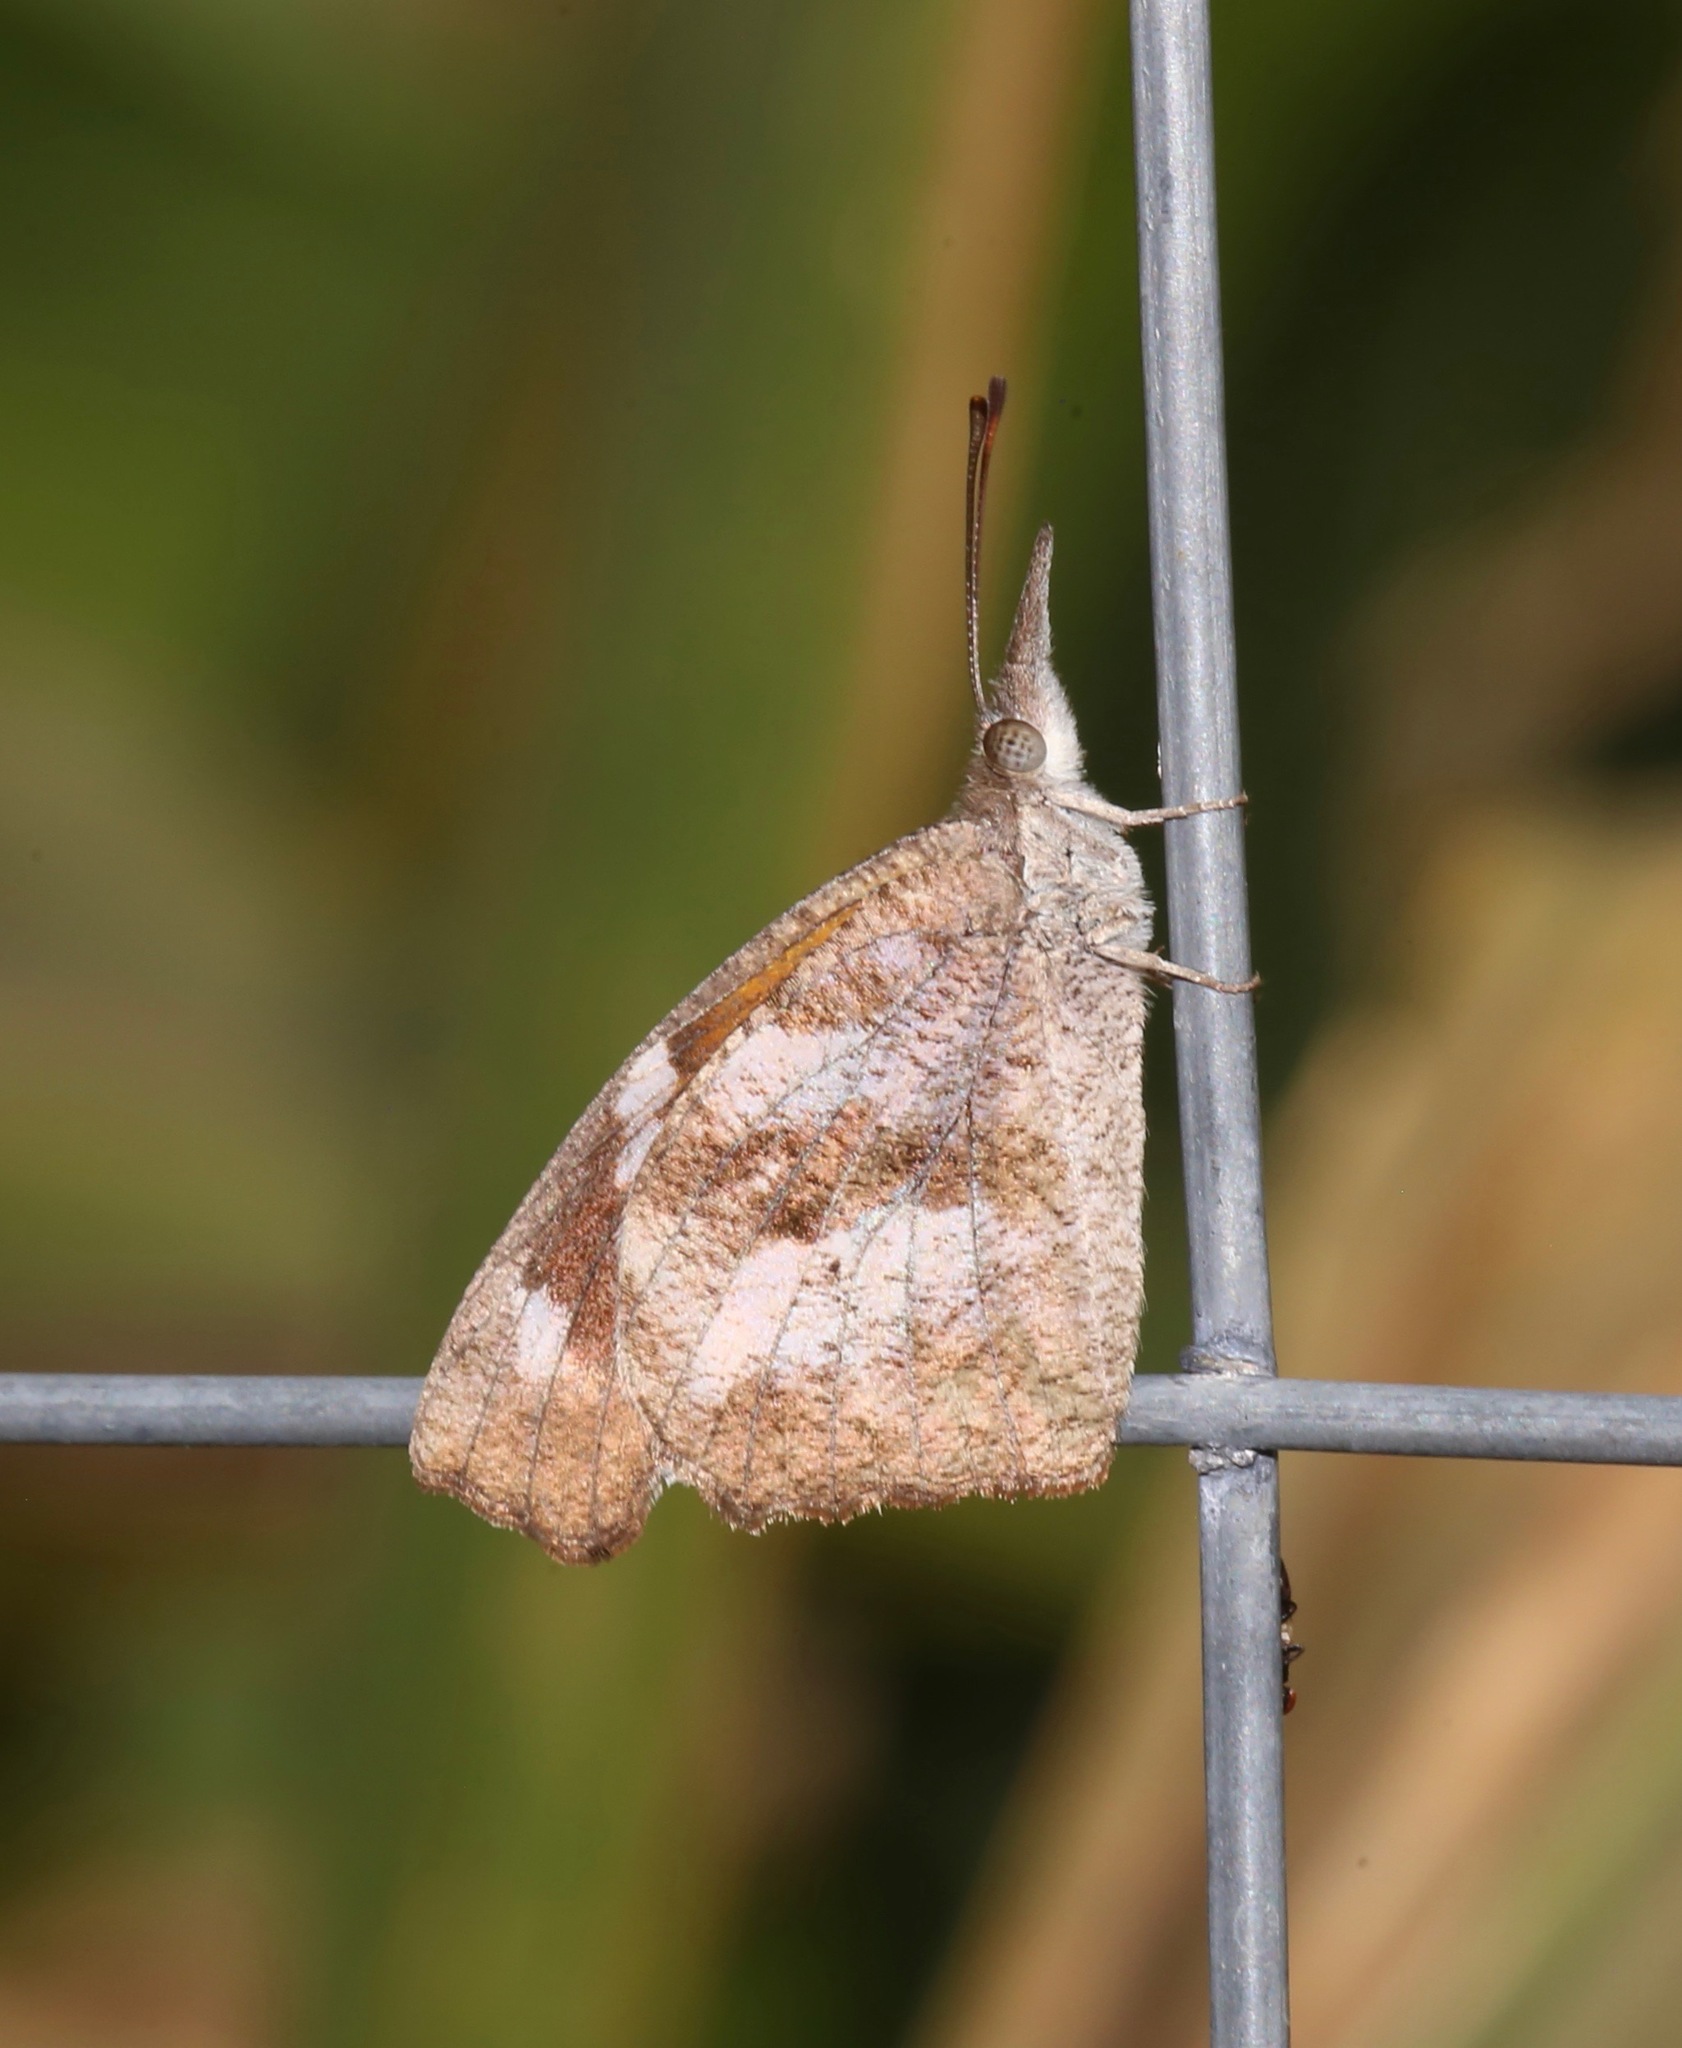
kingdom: Animalia
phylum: Arthropoda
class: Insecta
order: Lepidoptera
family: Nymphalidae
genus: Libytheana
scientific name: Libytheana carinenta
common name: American snout
